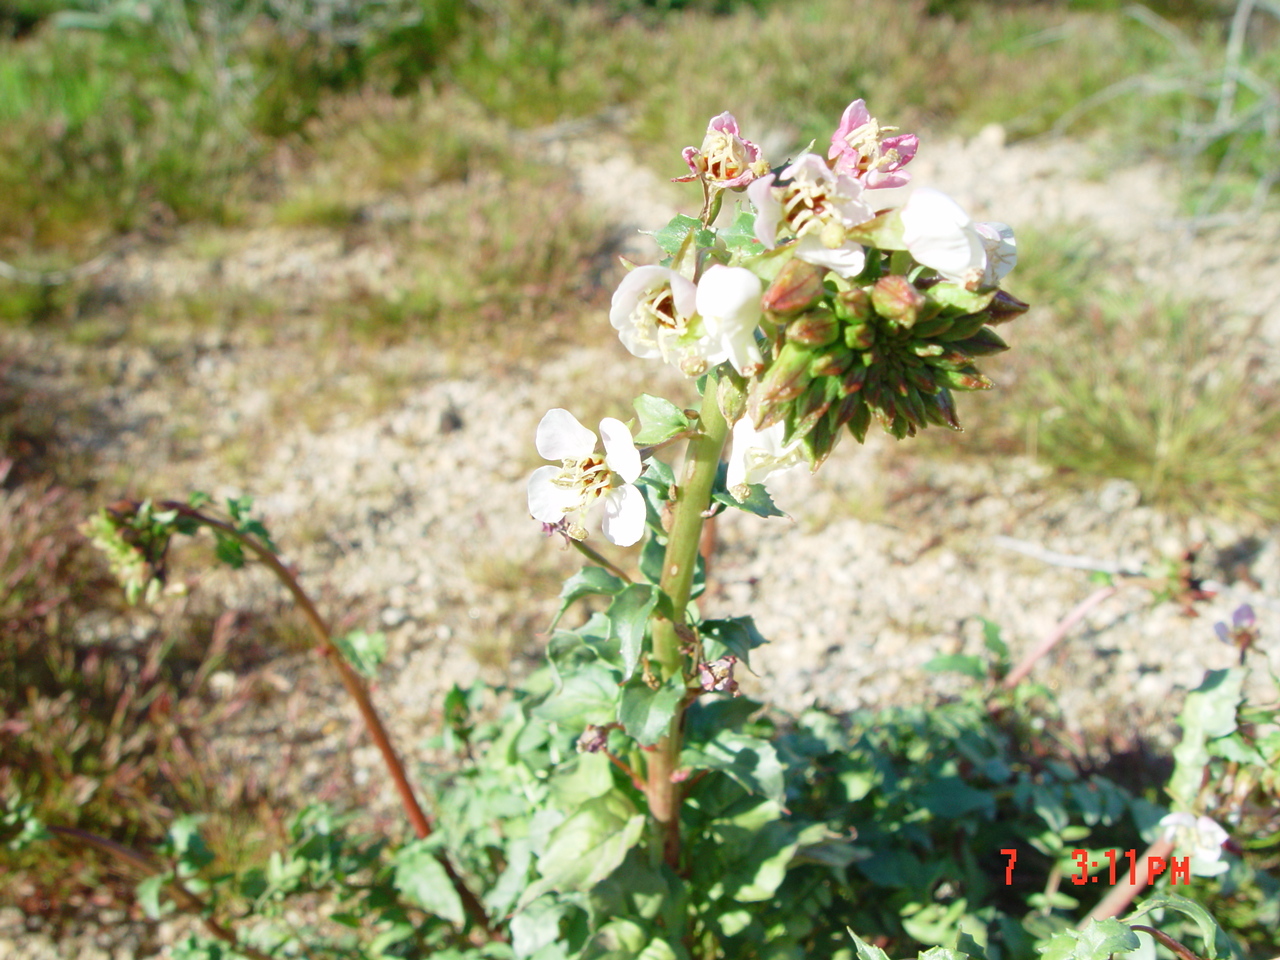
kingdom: Plantae
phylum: Tracheophyta
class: Magnoliopsida
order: Myrtales
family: Onagraceae
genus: Chylismia
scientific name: Chylismia claviformis
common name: Browneyes
